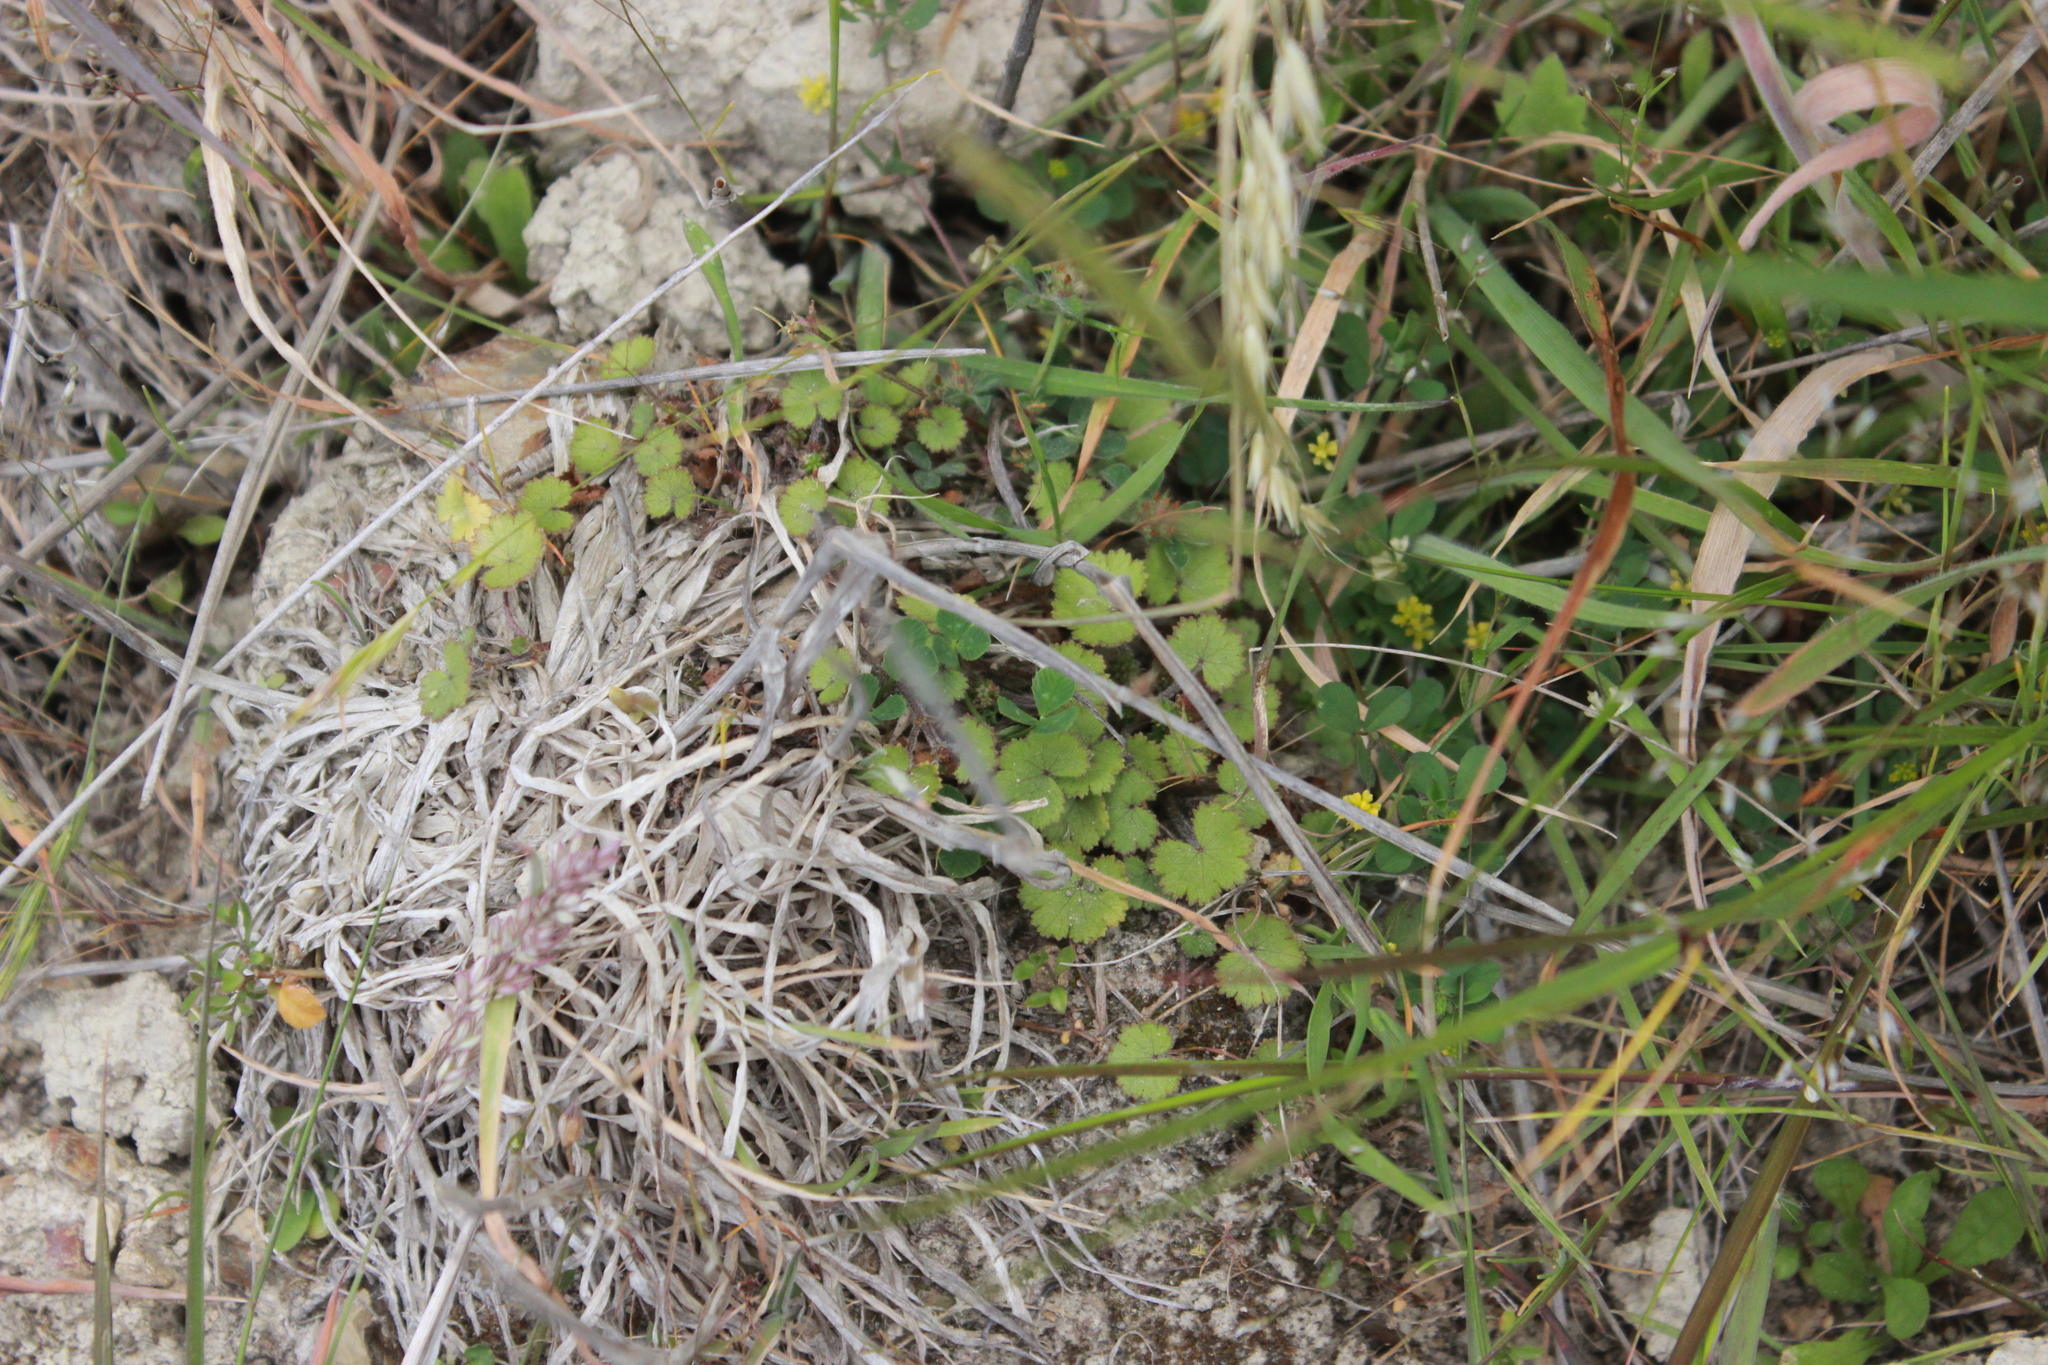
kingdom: Plantae
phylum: Tracheophyta
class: Magnoliopsida
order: Apiales
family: Araliaceae
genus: Hydrocotyle
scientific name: Hydrocotyle moschata
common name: Hairy pennywort
